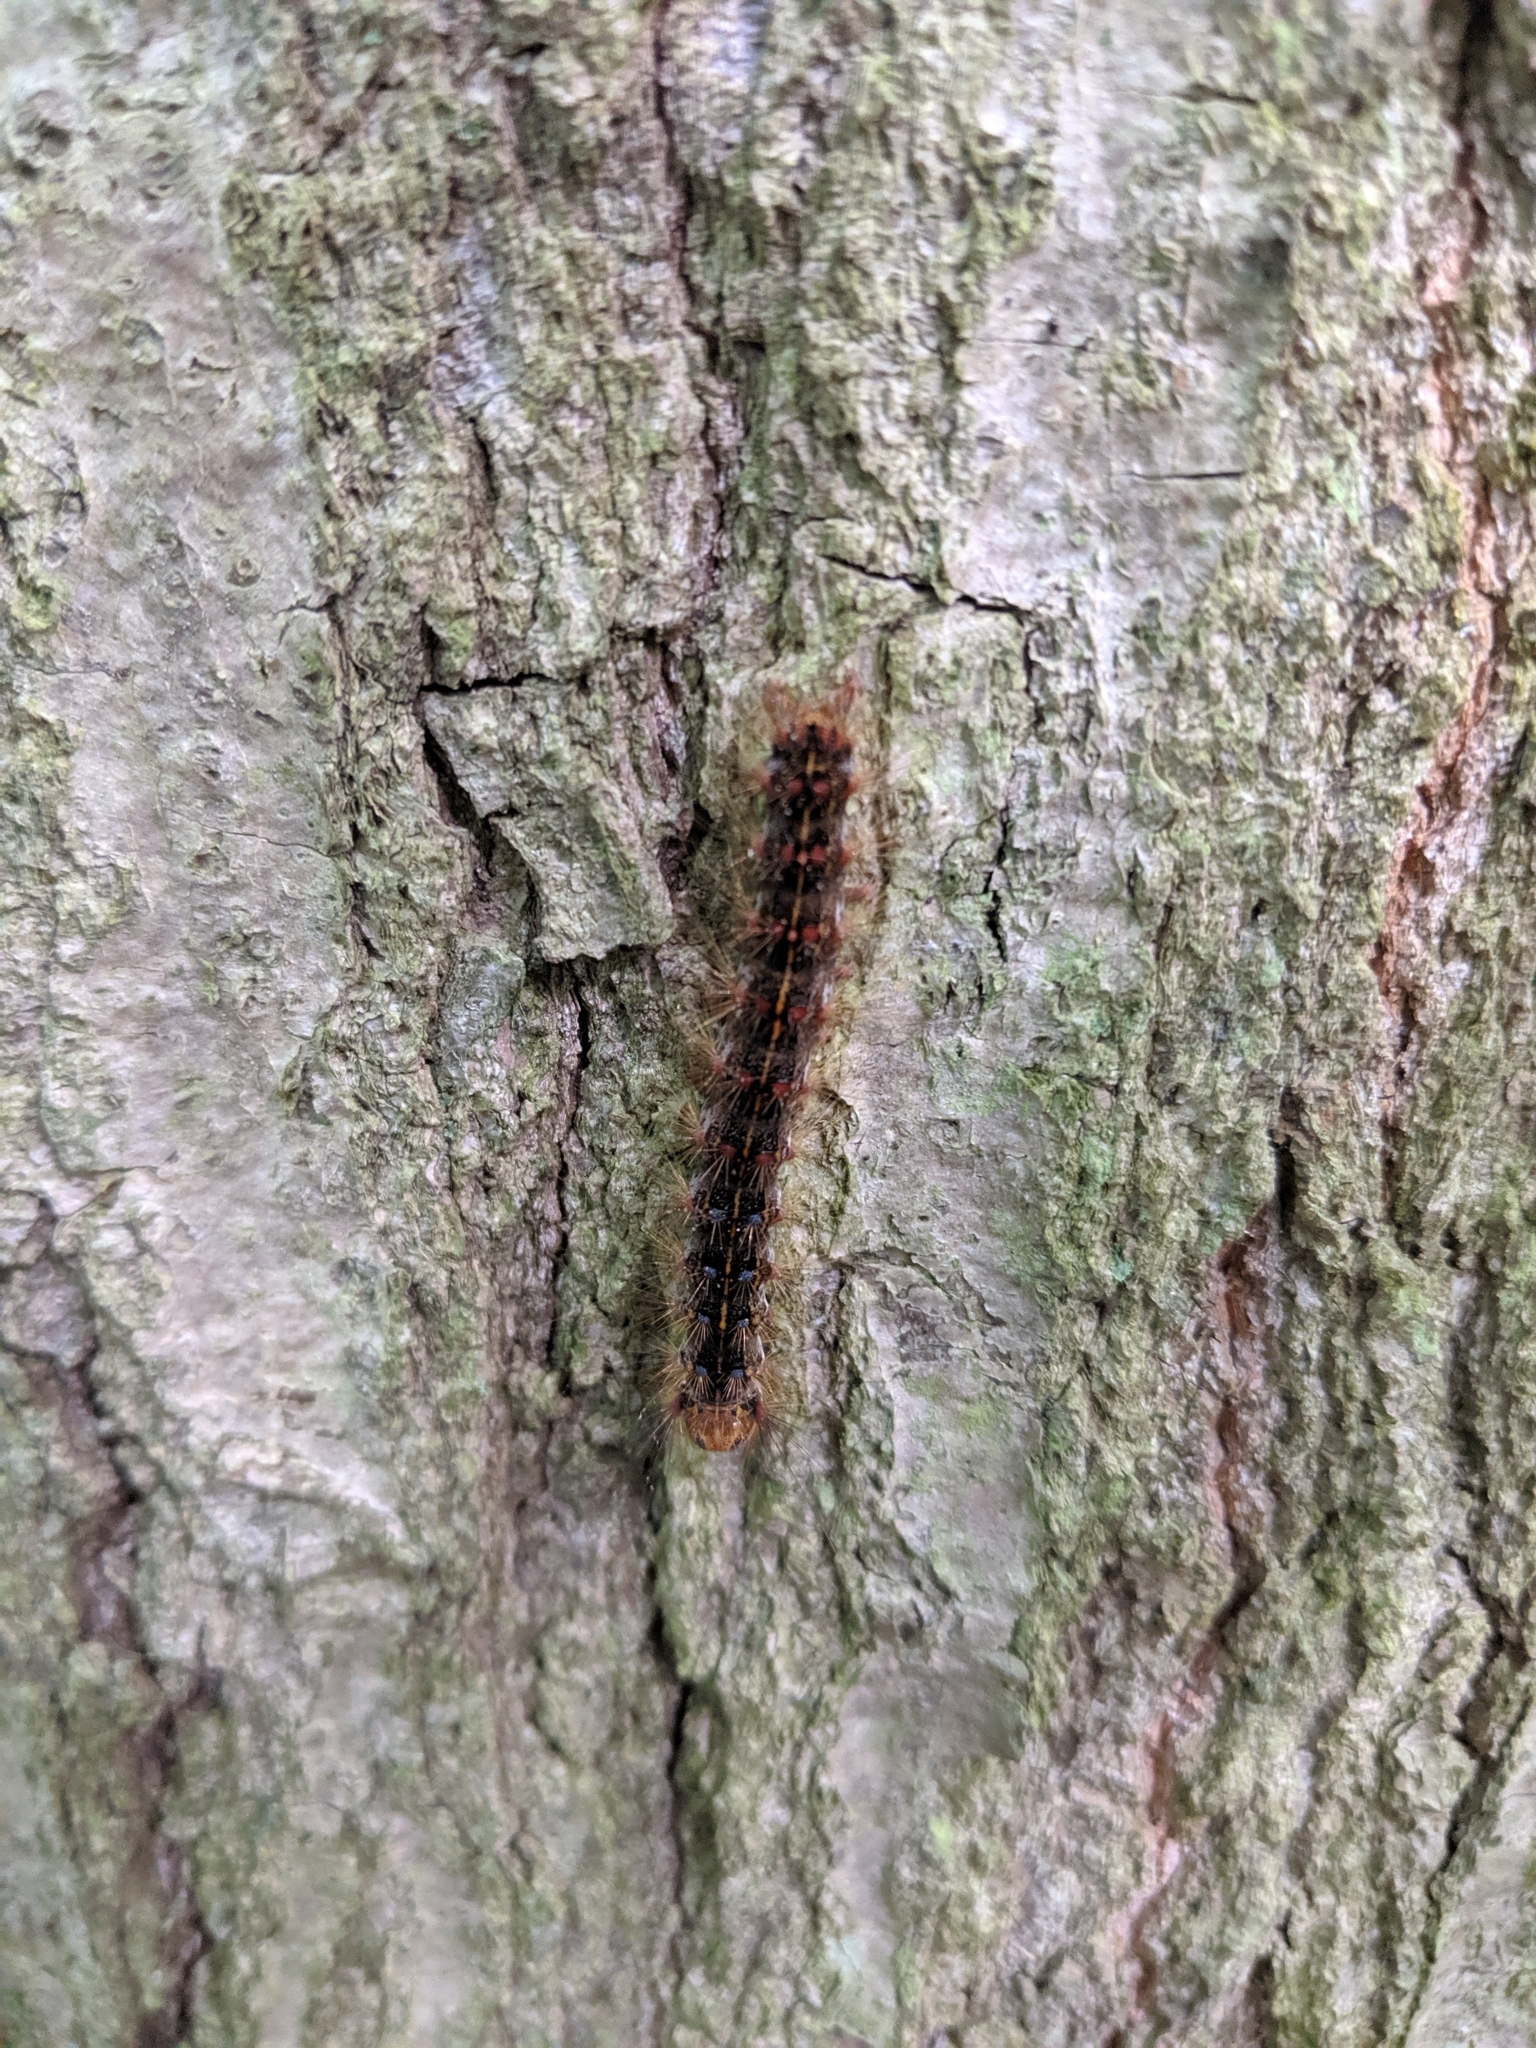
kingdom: Animalia
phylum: Arthropoda
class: Insecta
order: Lepidoptera
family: Erebidae
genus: Lymantria
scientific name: Lymantria dispar
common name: Gypsy moth
